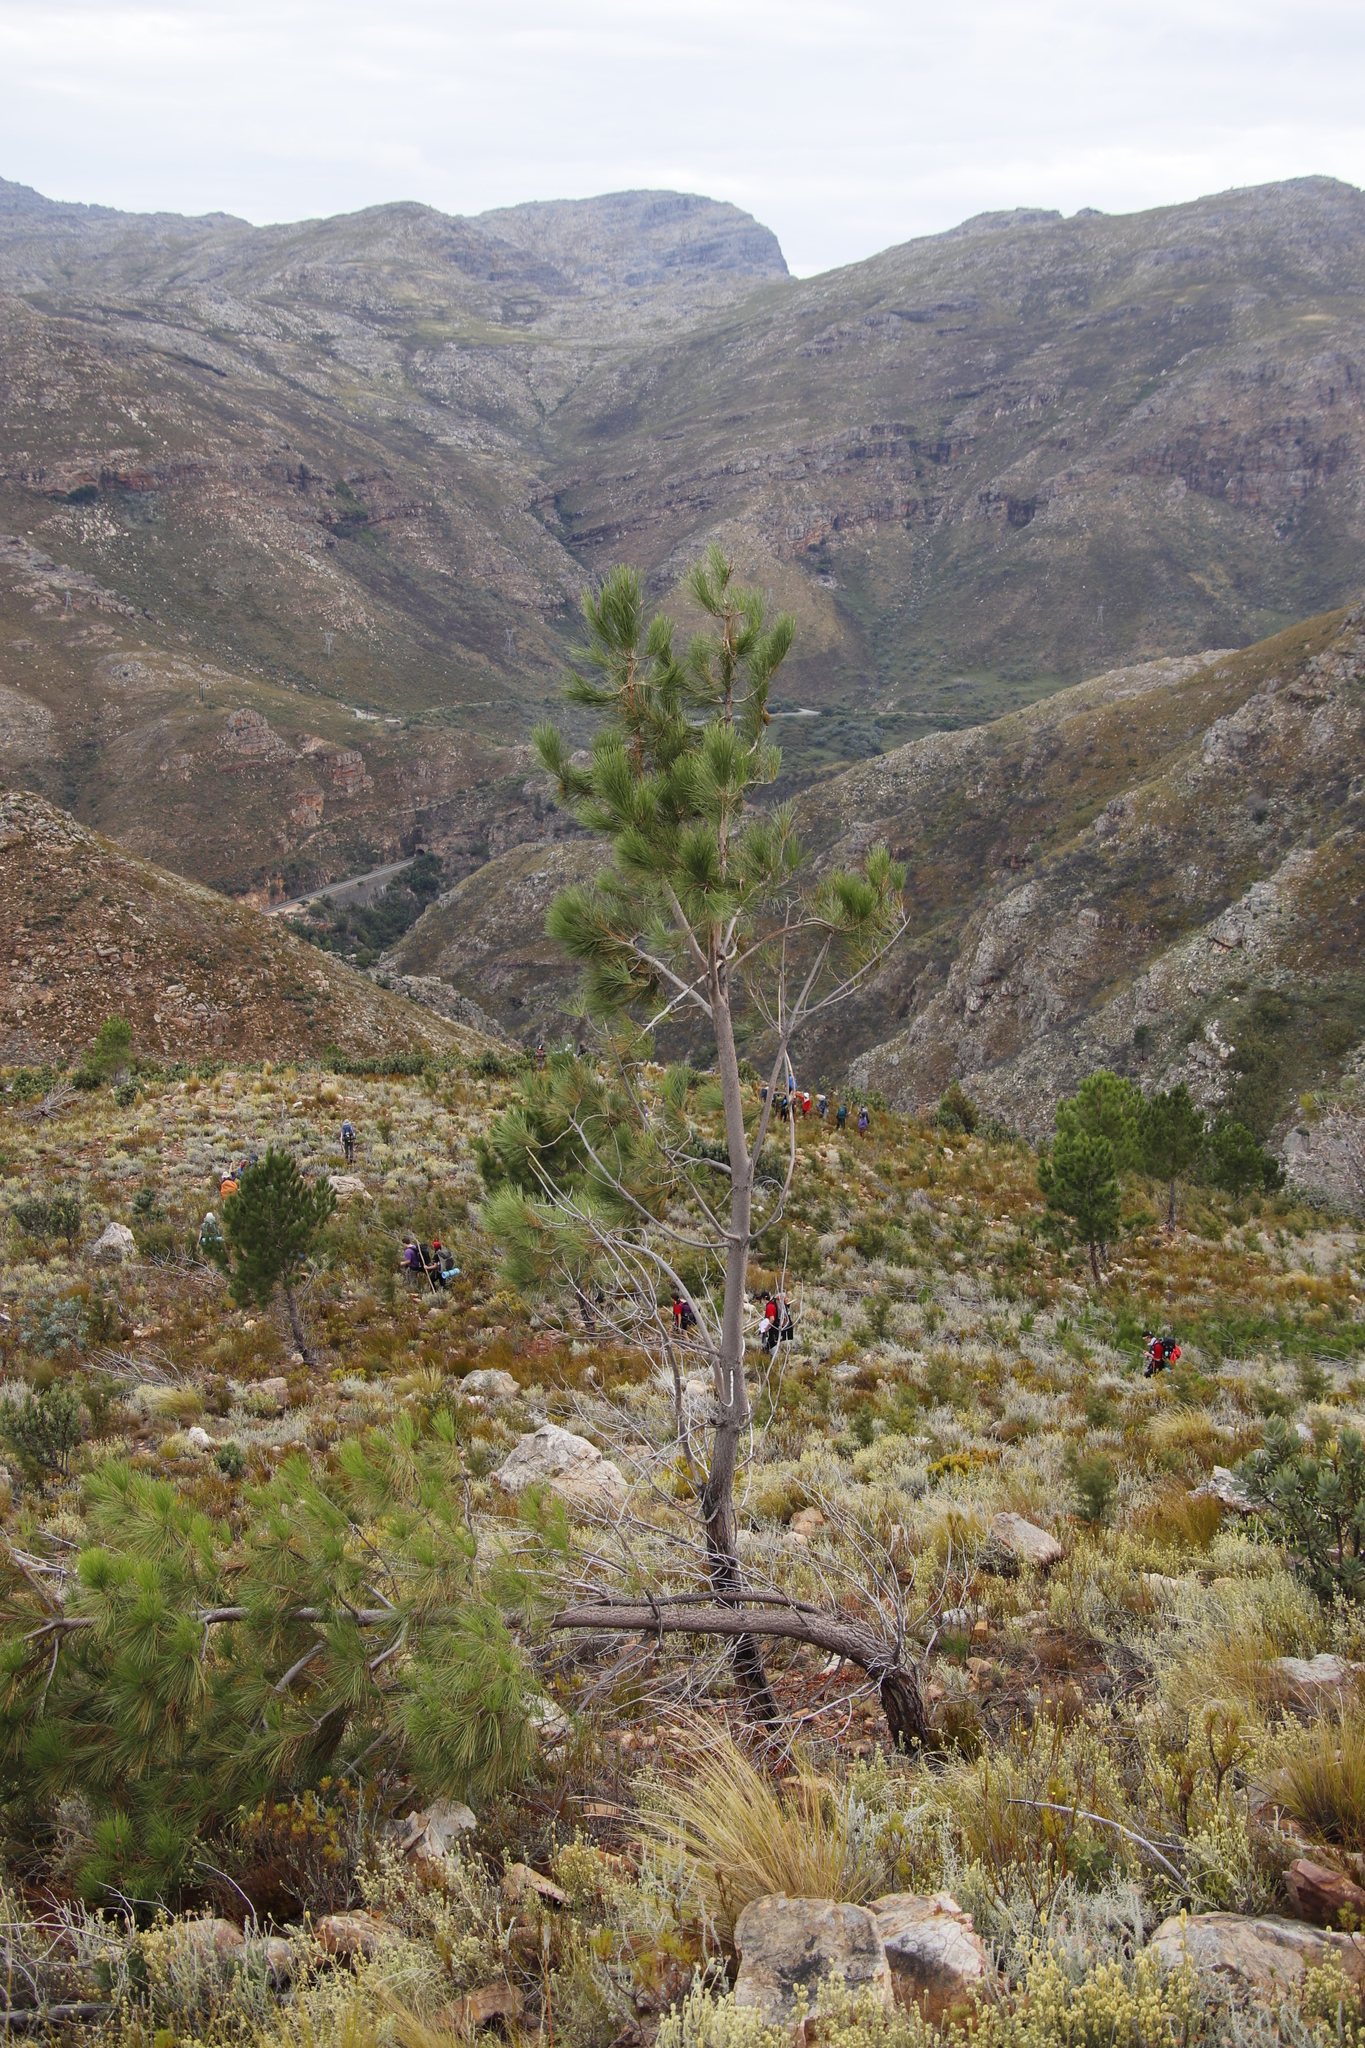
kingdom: Plantae
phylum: Tracheophyta
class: Pinopsida
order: Pinales
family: Pinaceae
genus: Pinus
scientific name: Pinus pinaster
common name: Maritime pine
